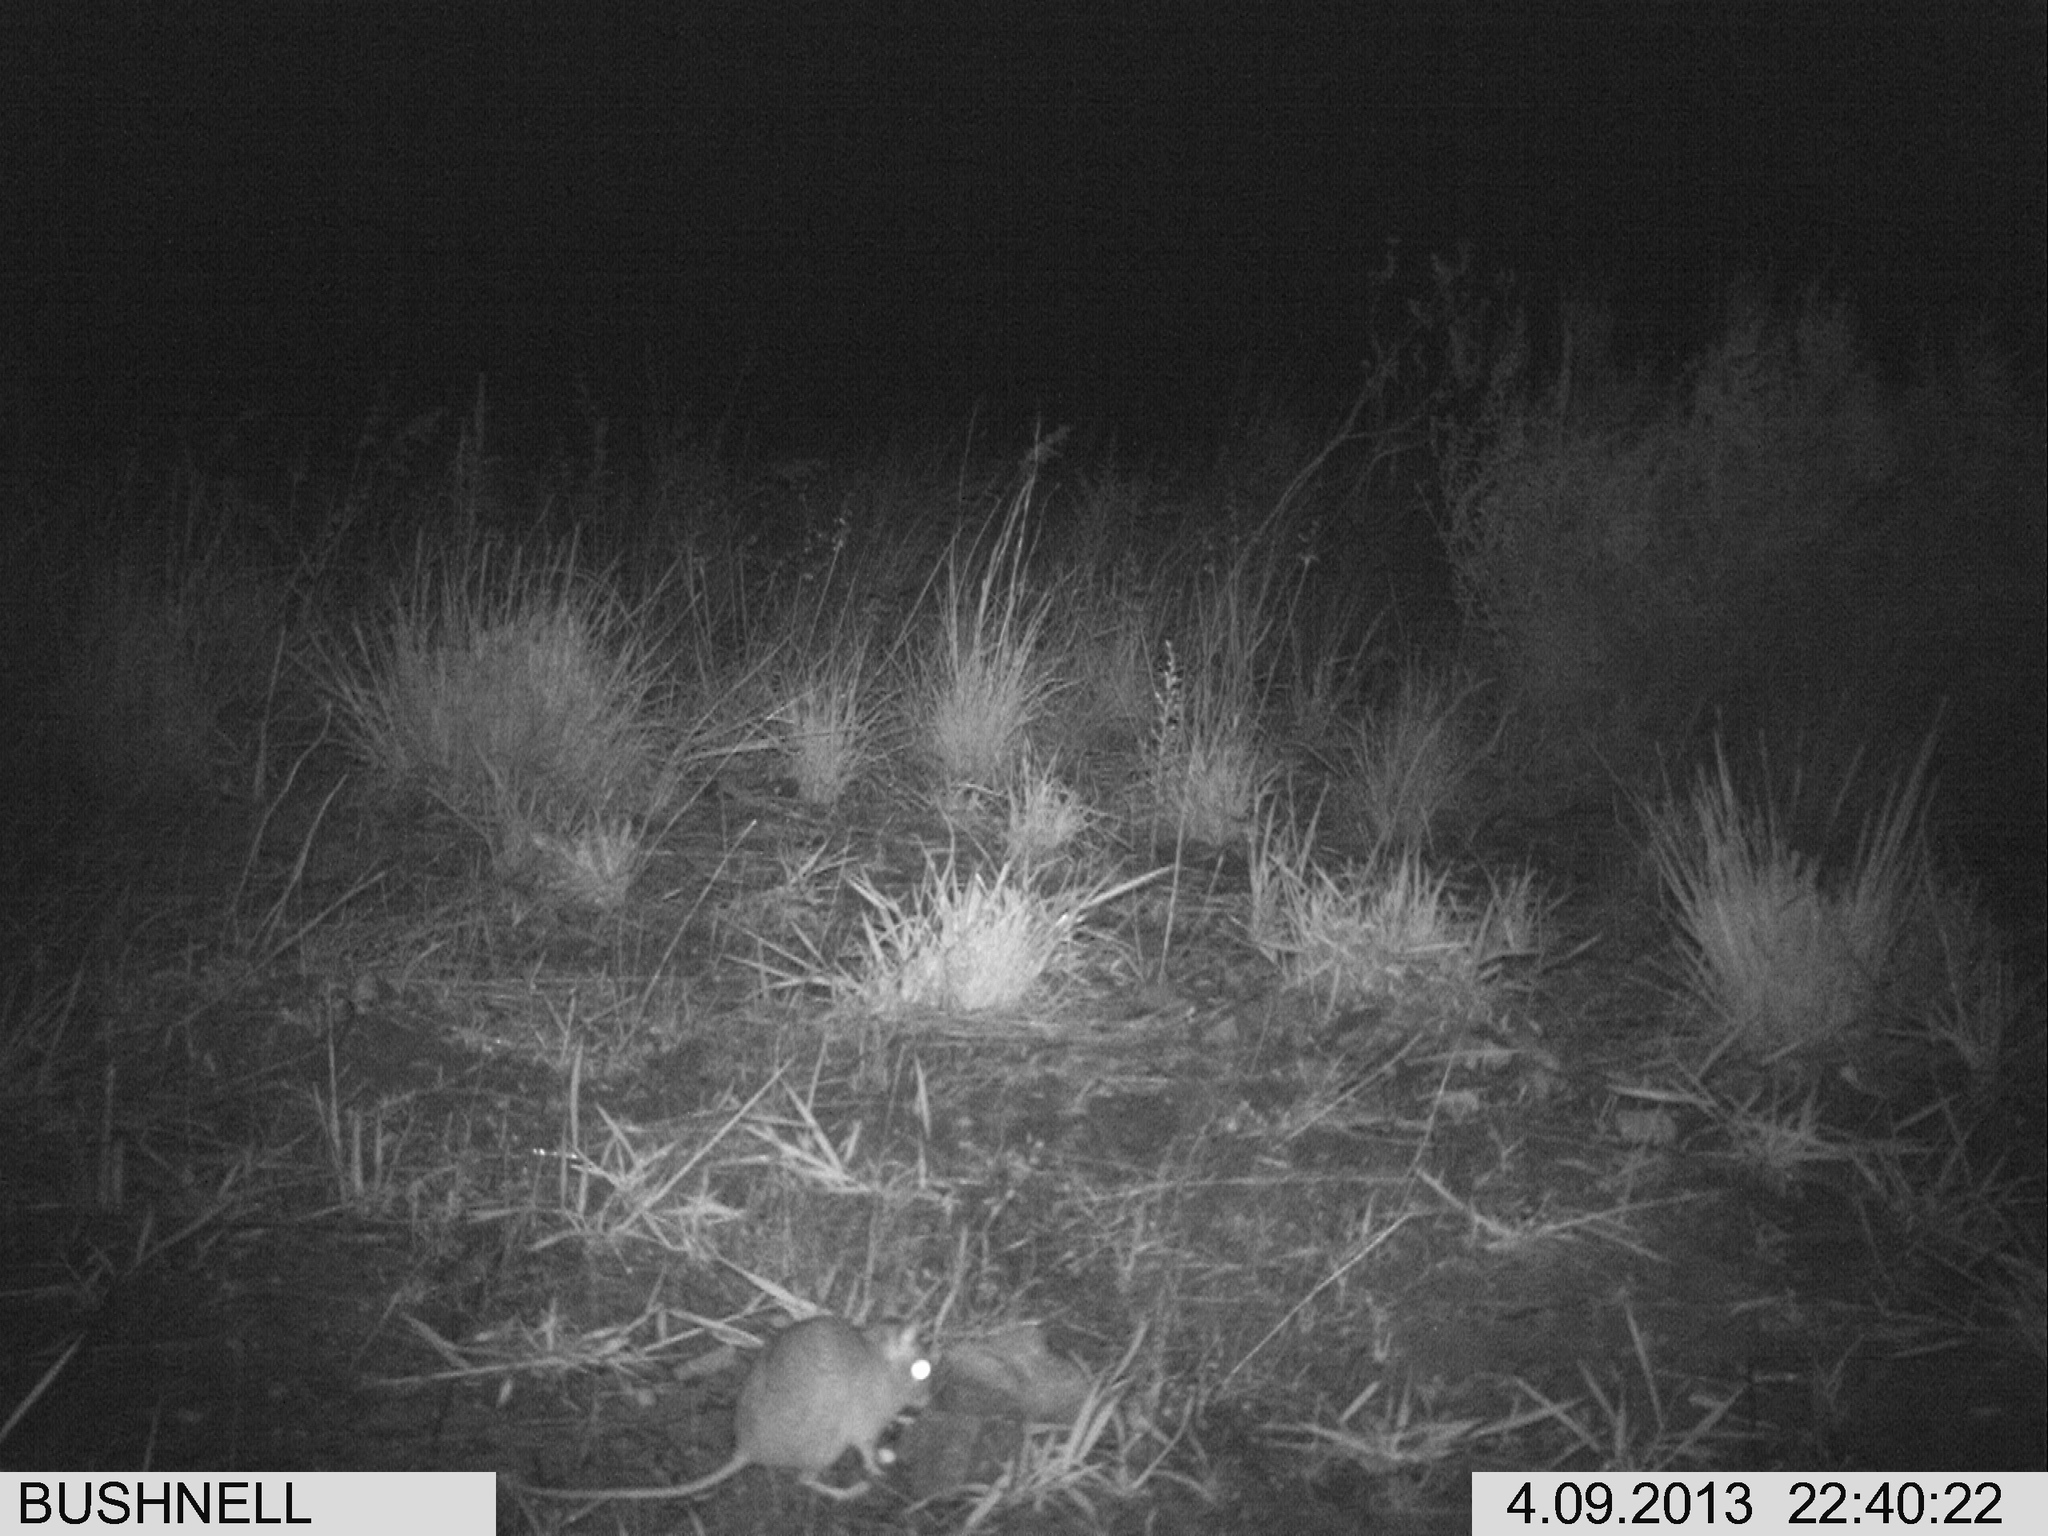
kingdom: Animalia
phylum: Chordata
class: Mammalia
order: Rodentia
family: Muridae
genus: Gerbilliscus
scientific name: Gerbilliscus afer
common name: Cape gerbil
